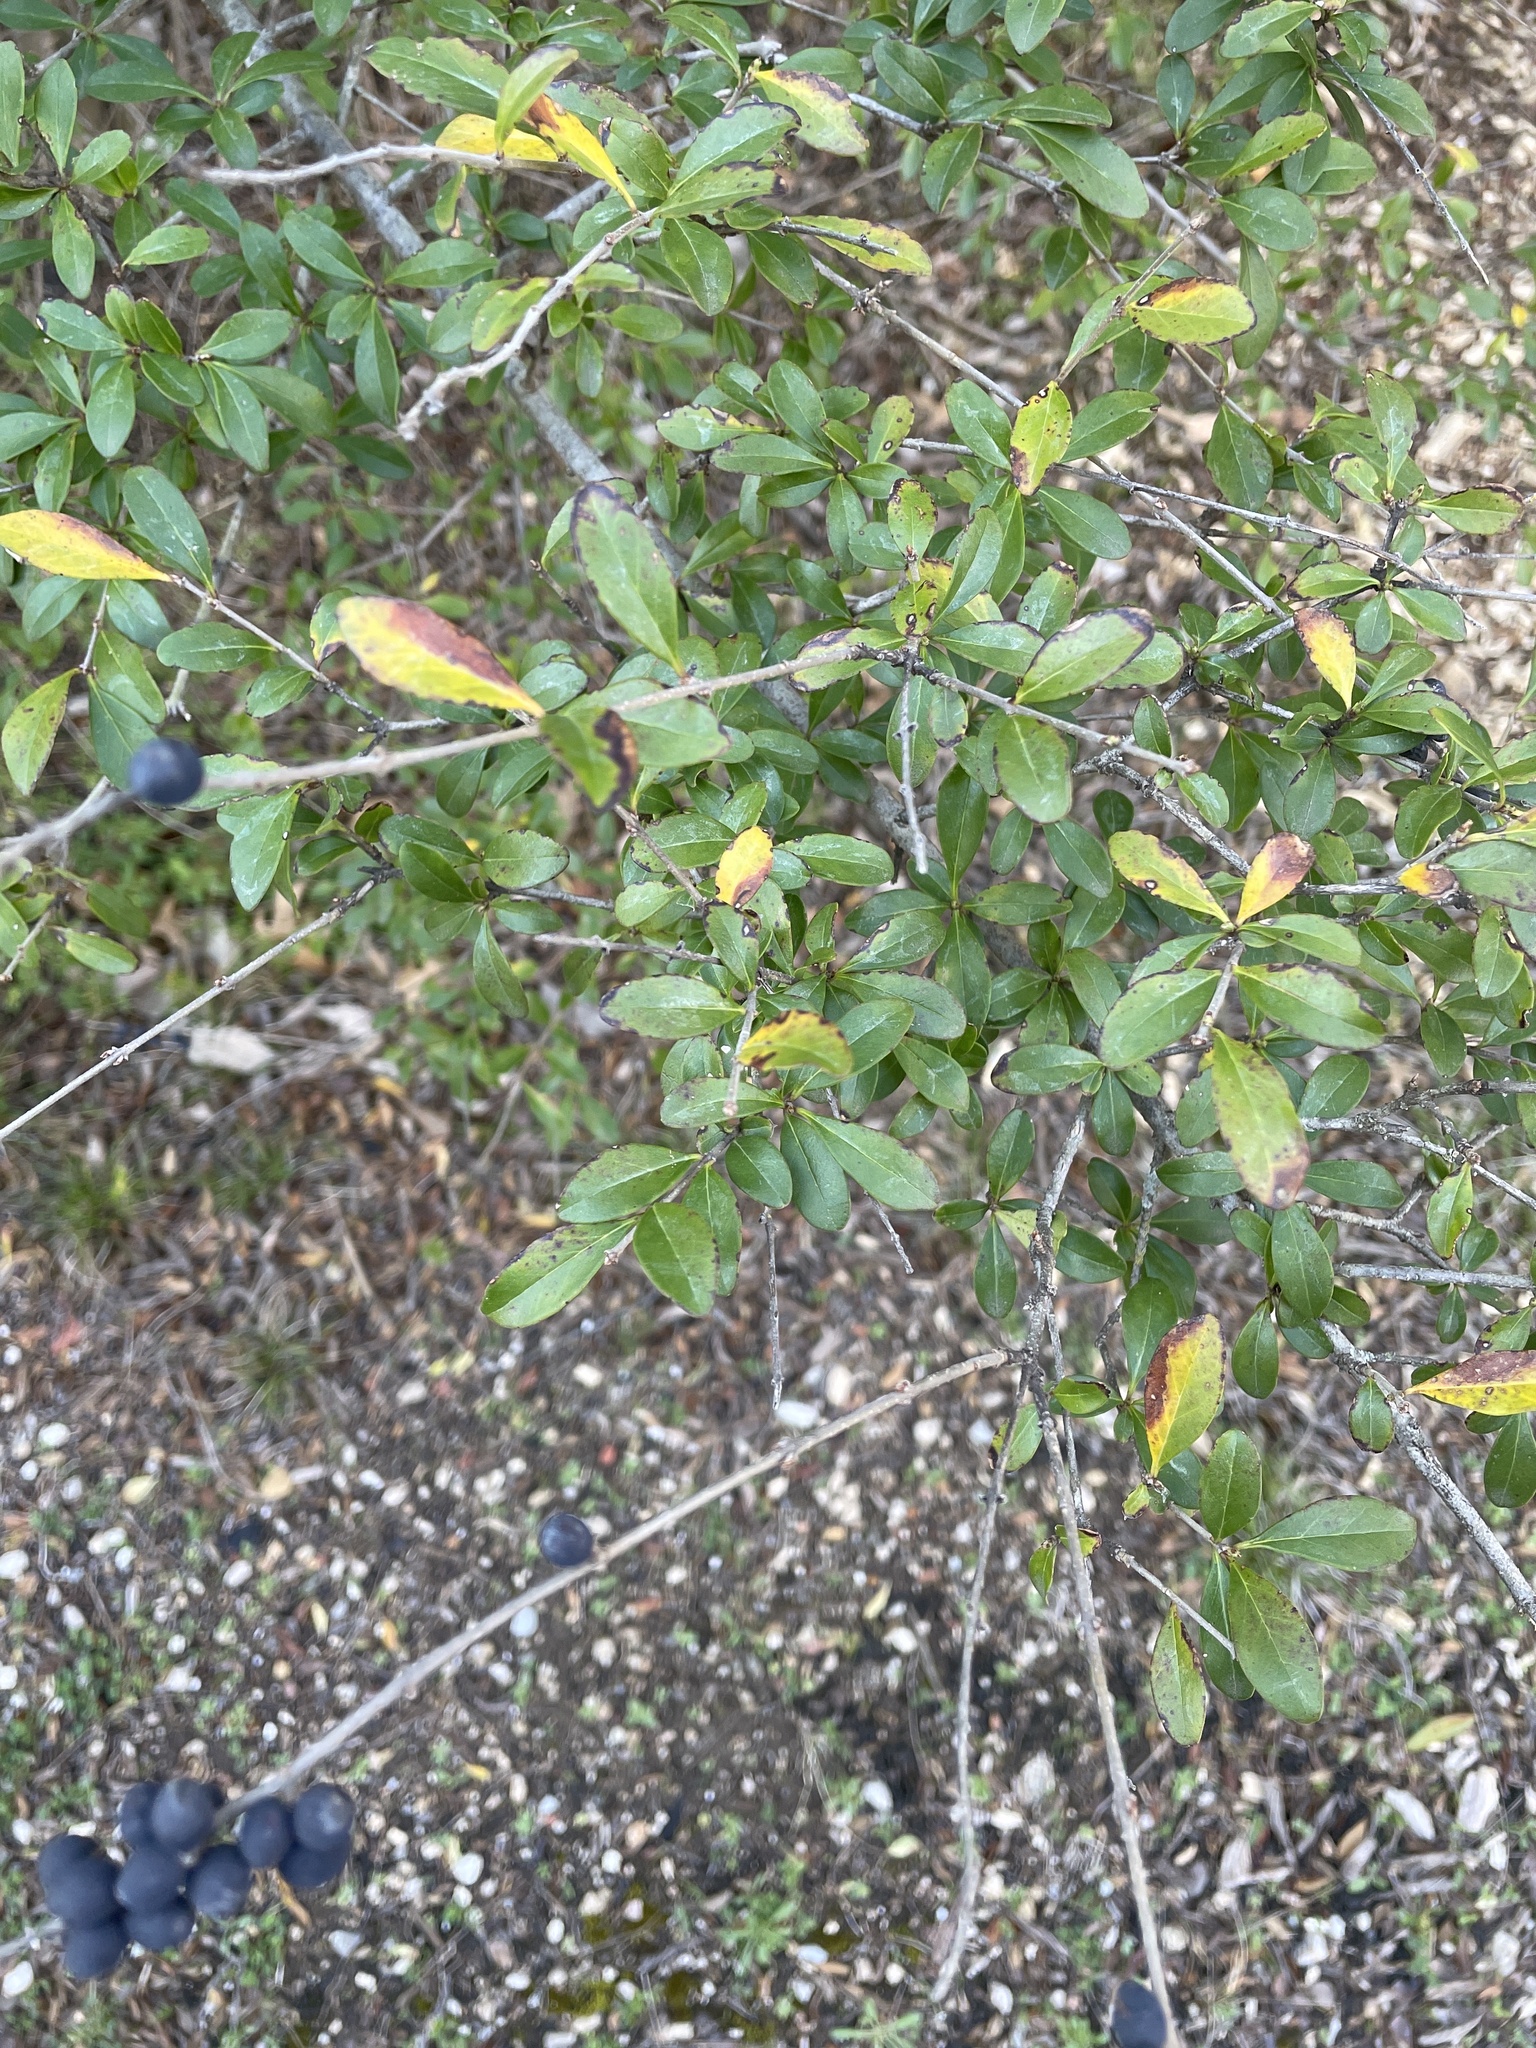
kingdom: Plantae
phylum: Tracheophyta
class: Magnoliopsida
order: Lamiales
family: Oleaceae
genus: Ligustrum
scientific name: Ligustrum quihoui
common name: Waxyleaf privet
